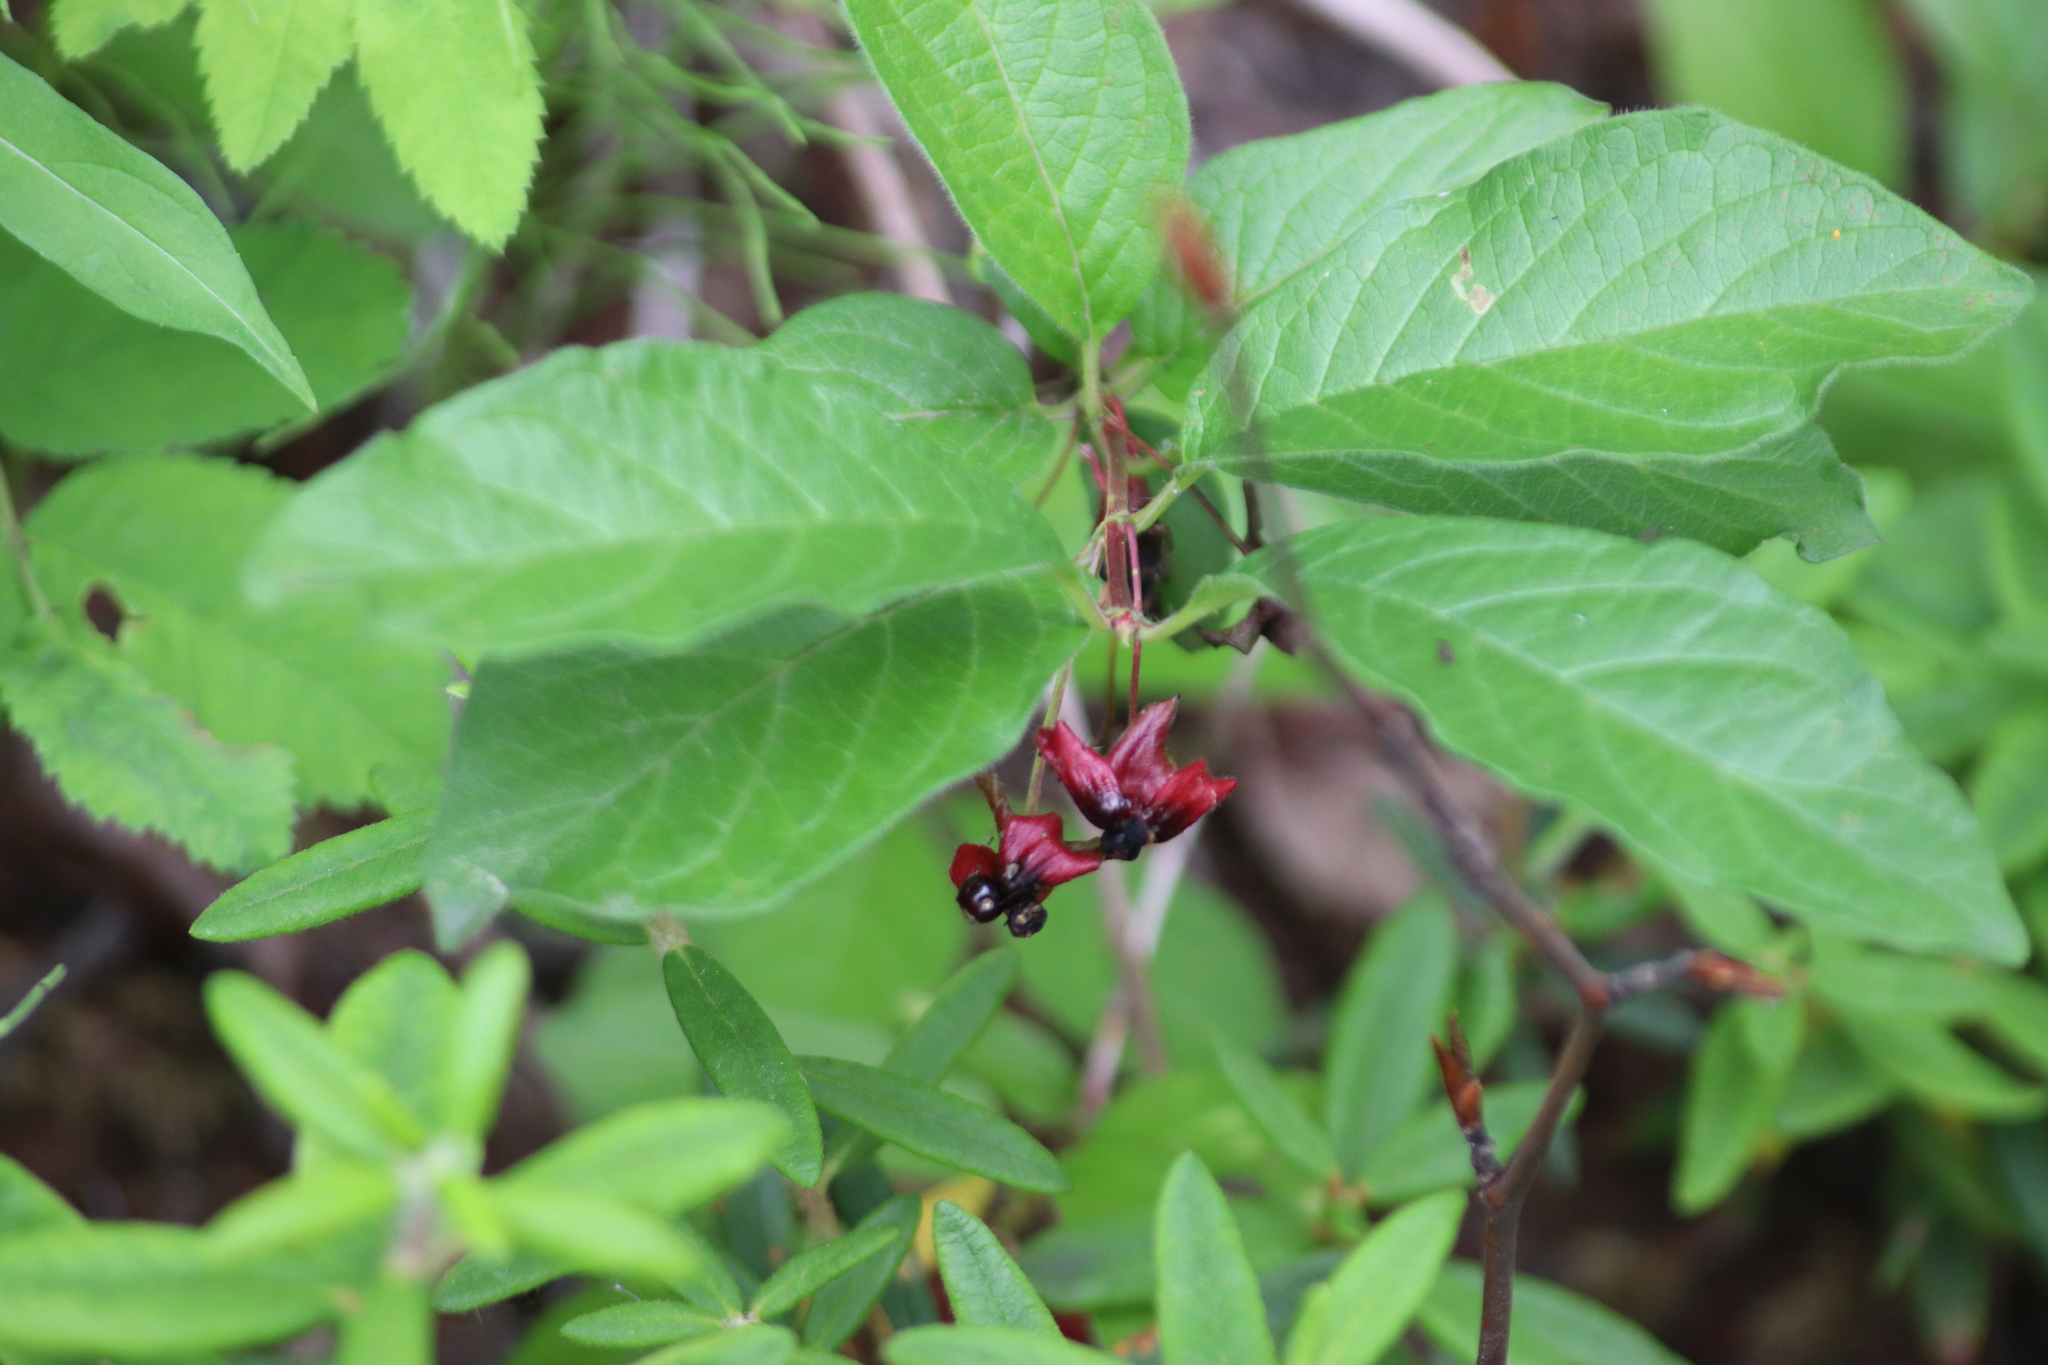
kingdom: Plantae
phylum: Tracheophyta
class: Magnoliopsida
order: Dipsacales
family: Caprifoliaceae
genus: Lonicera
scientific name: Lonicera involucrata
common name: Californian honeysuckle
